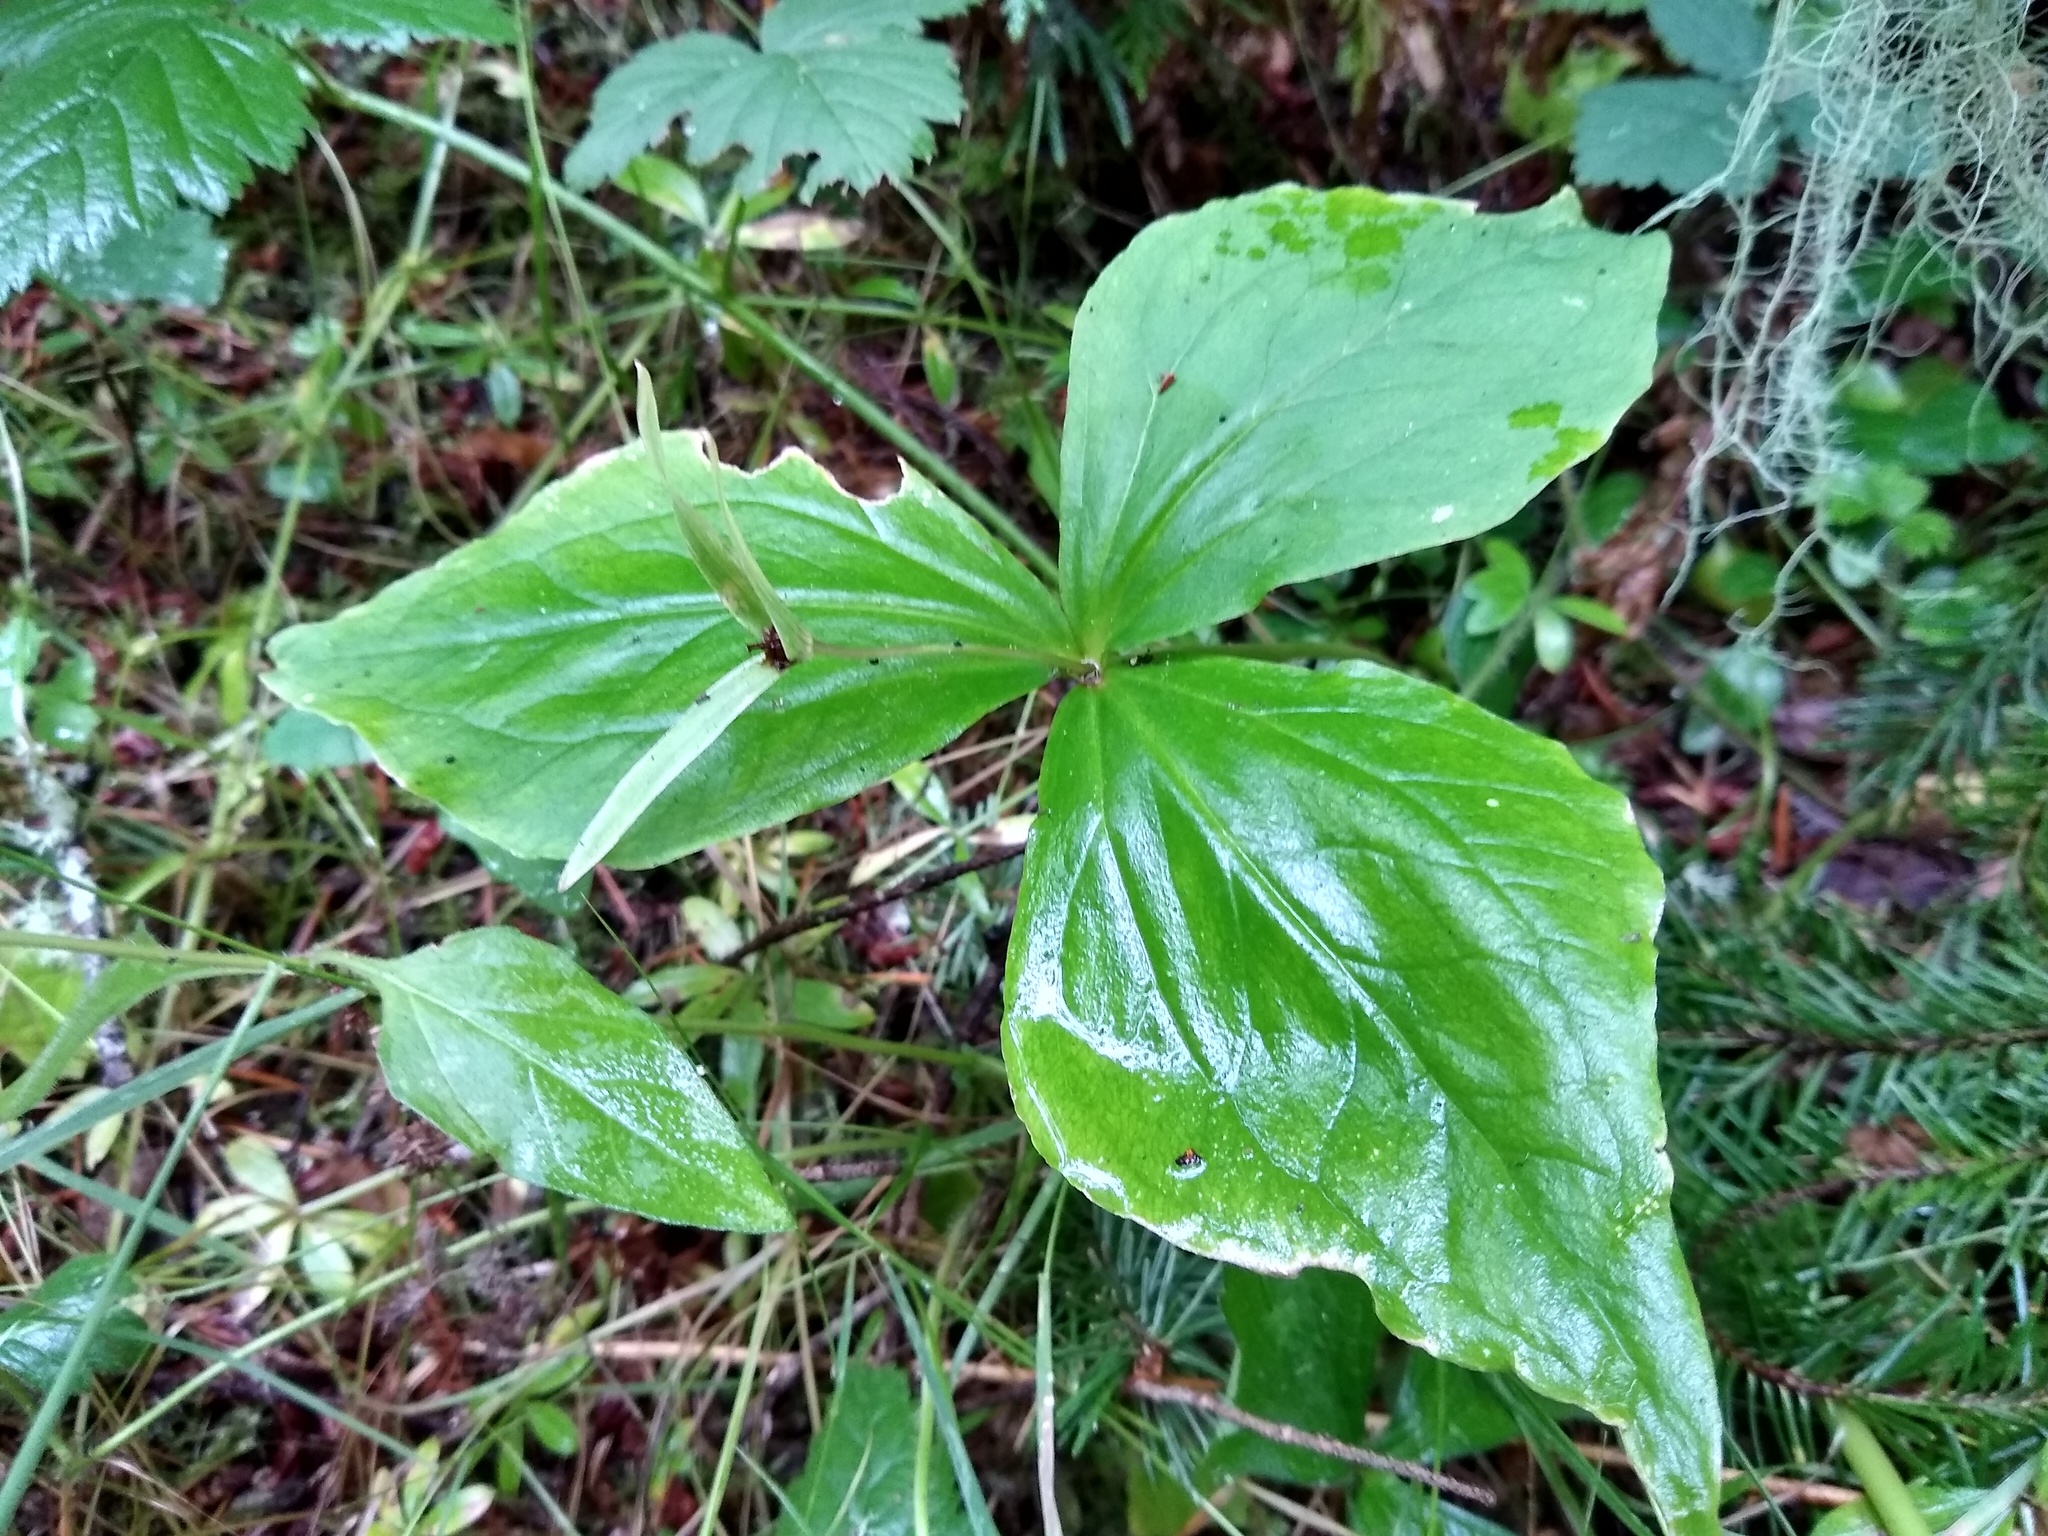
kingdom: Plantae
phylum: Tracheophyta
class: Liliopsida
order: Liliales
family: Melanthiaceae
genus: Trillium
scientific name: Trillium ovatum
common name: Pacific trillium
